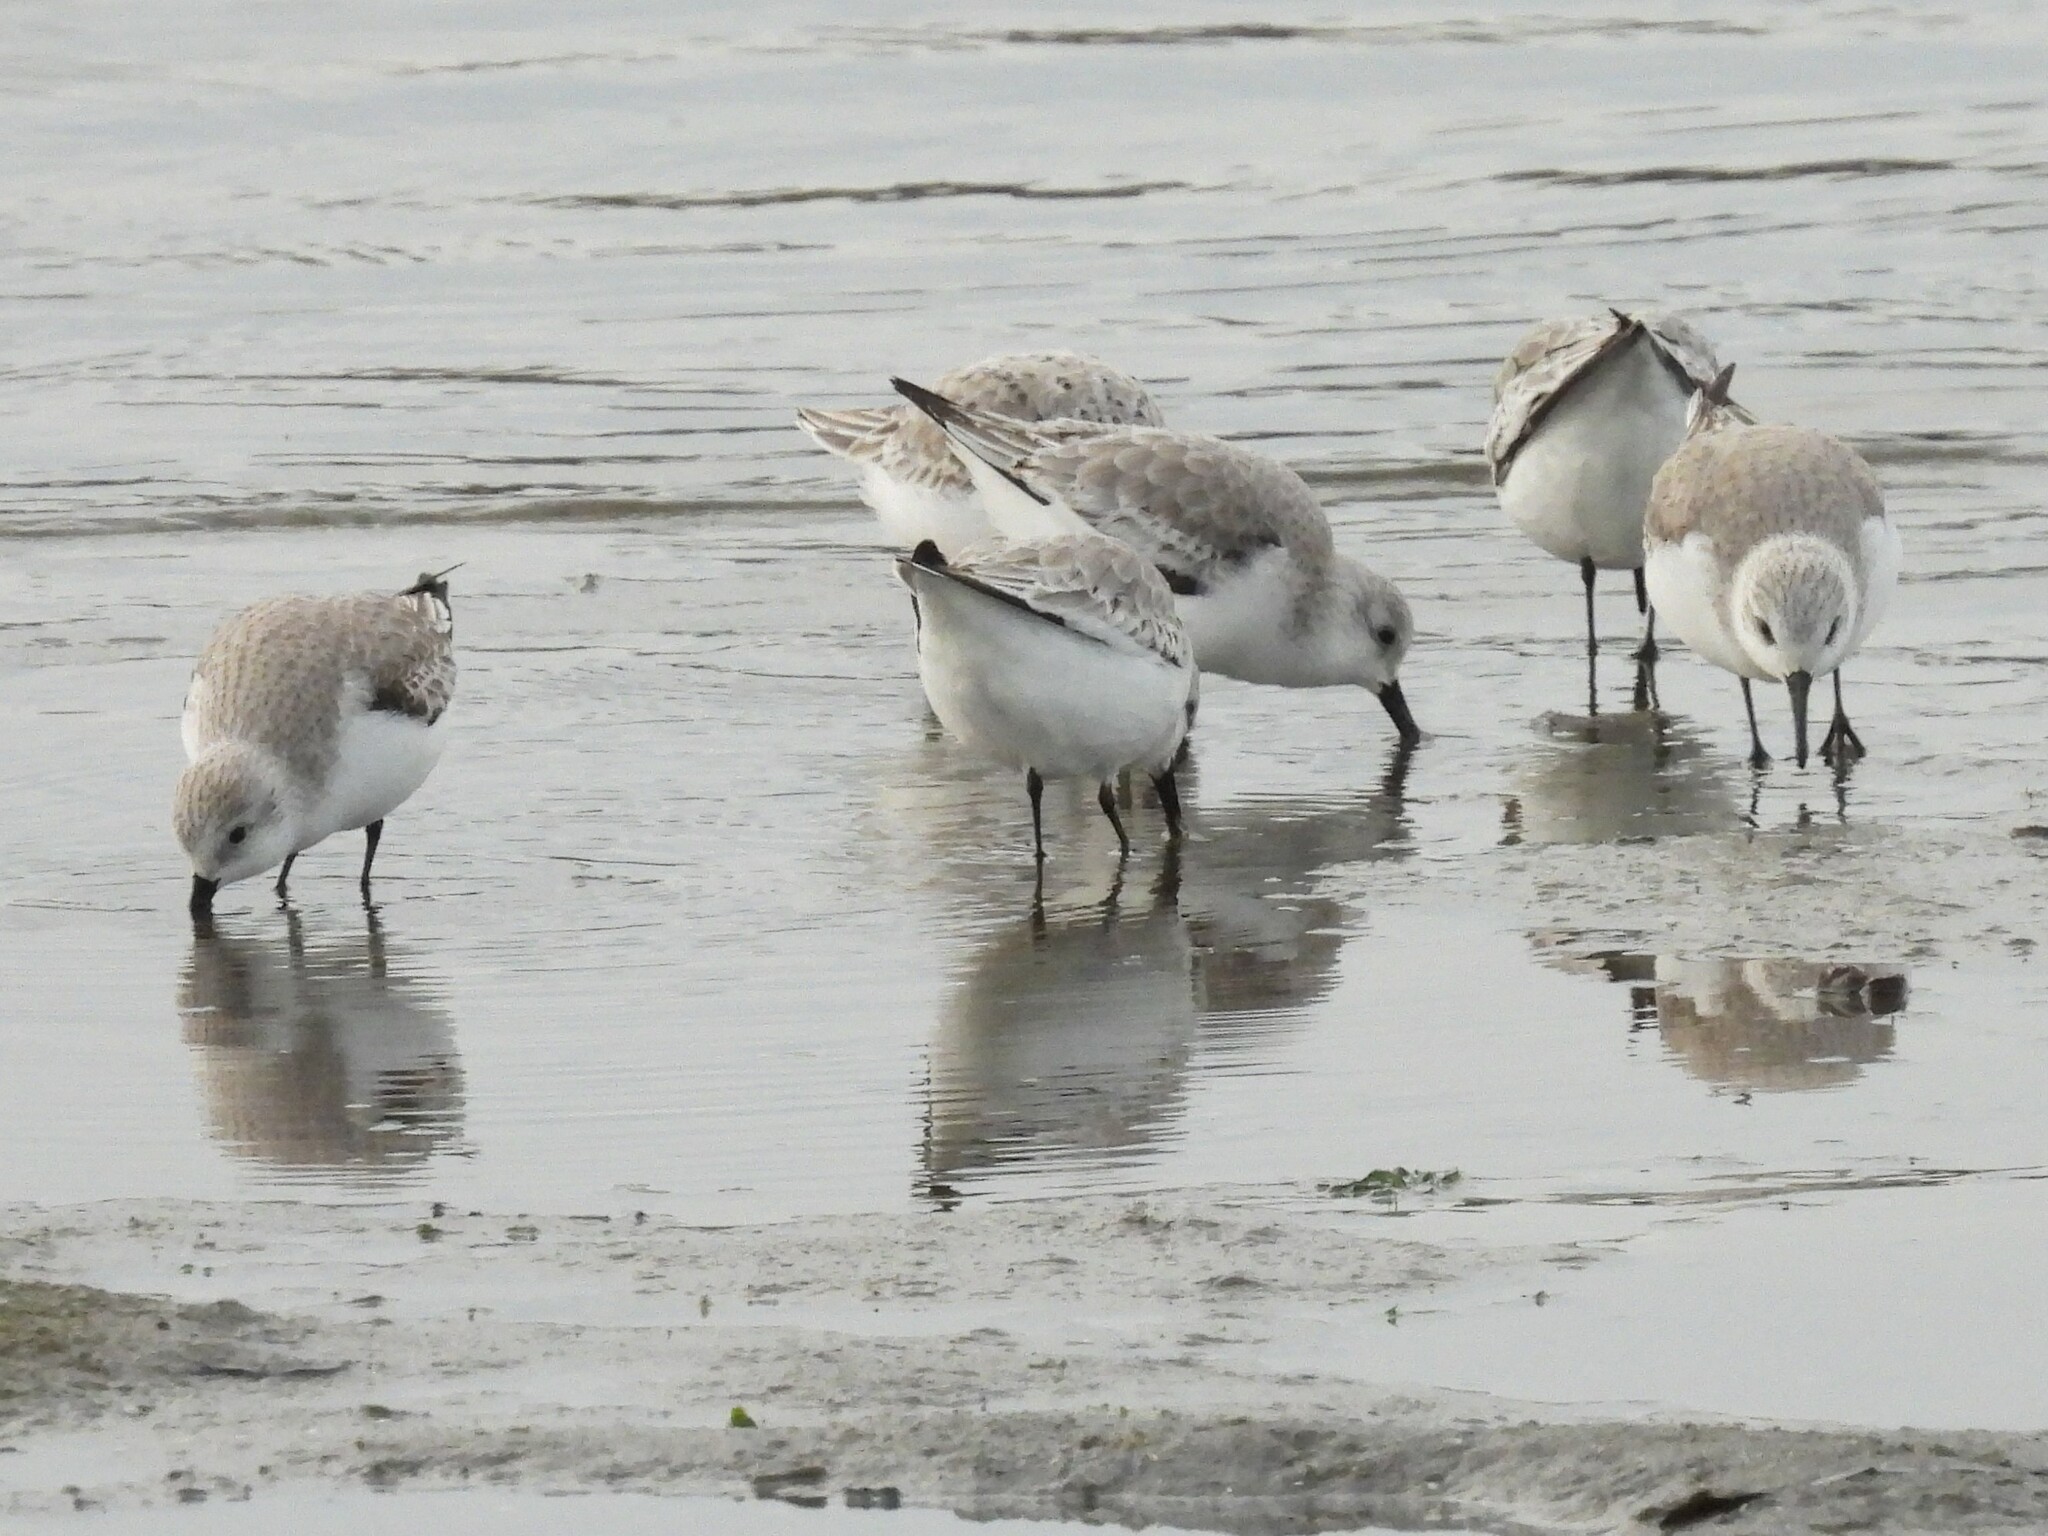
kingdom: Animalia
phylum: Chordata
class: Aves
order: Charadriiformes
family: Scolopacidae
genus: Calidris
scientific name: Calidris alba
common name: Sanderling
